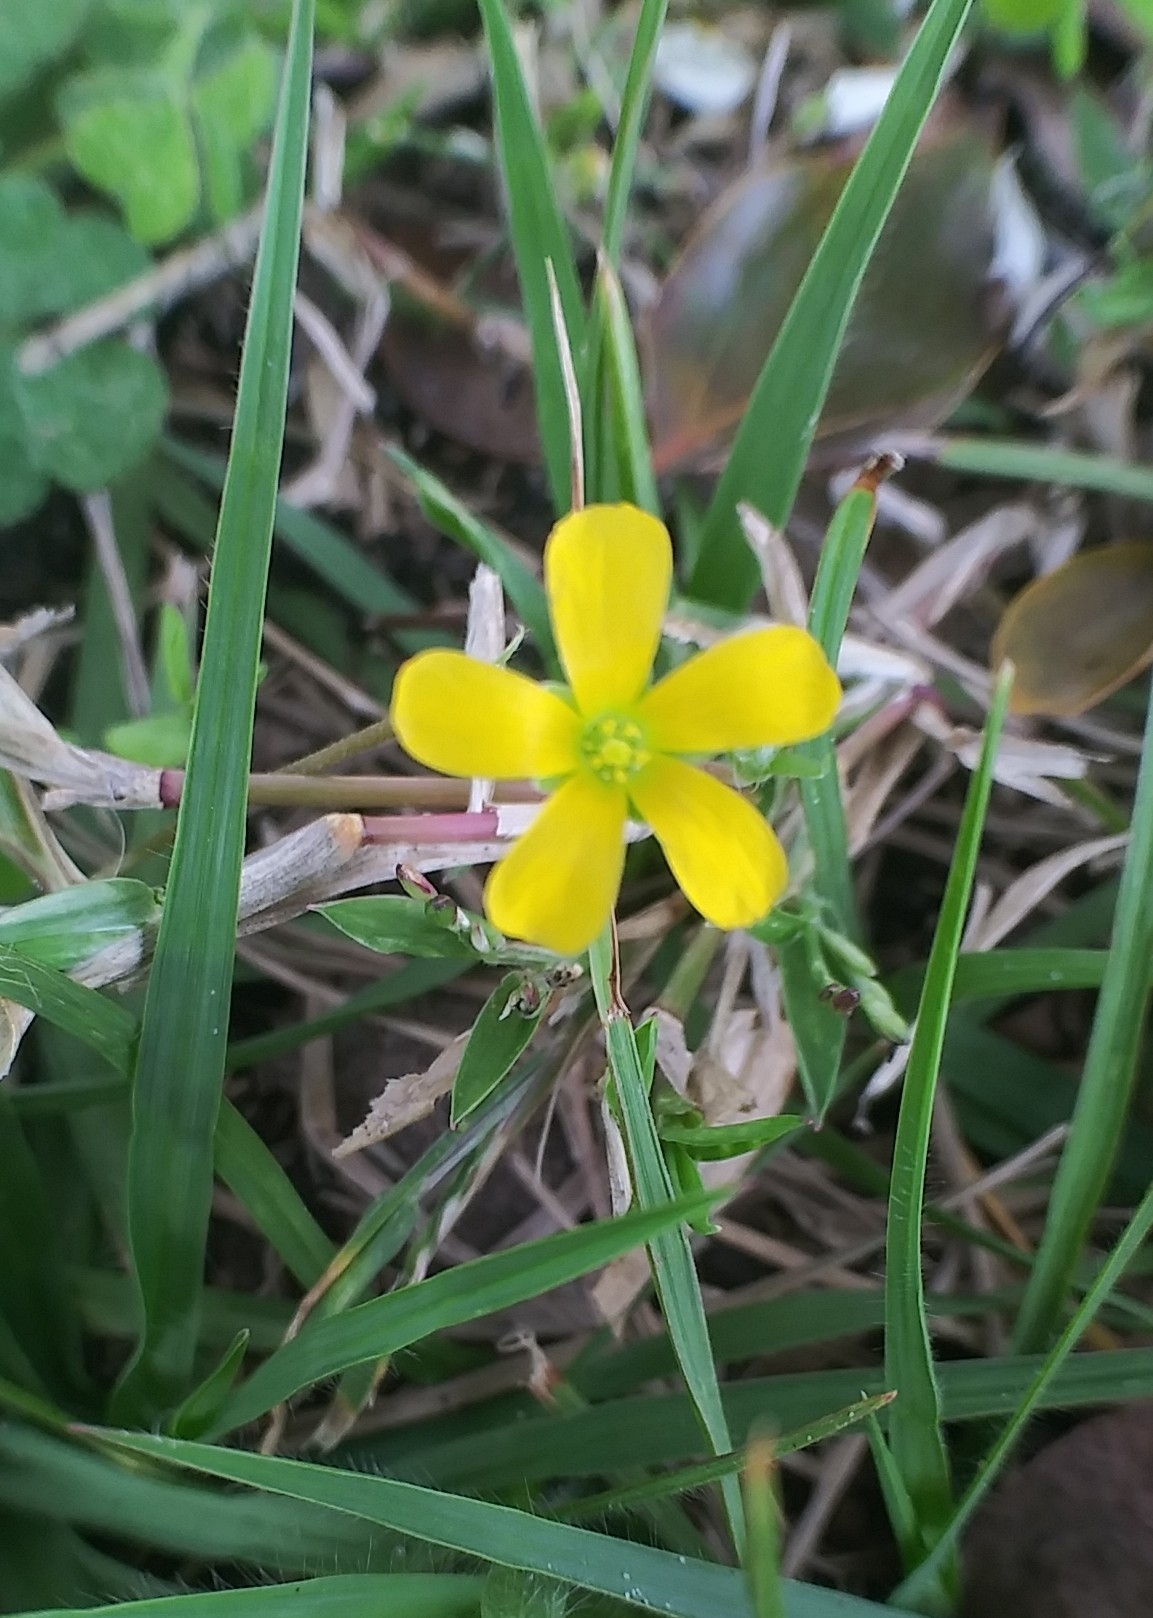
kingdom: Plantae
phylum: Tracheophyta
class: Magnoliopsida
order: Oxalidales
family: Oxalidaceae
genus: Oxalis
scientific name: Oxalis corniculata
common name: Procumbent yellow-sorrel
